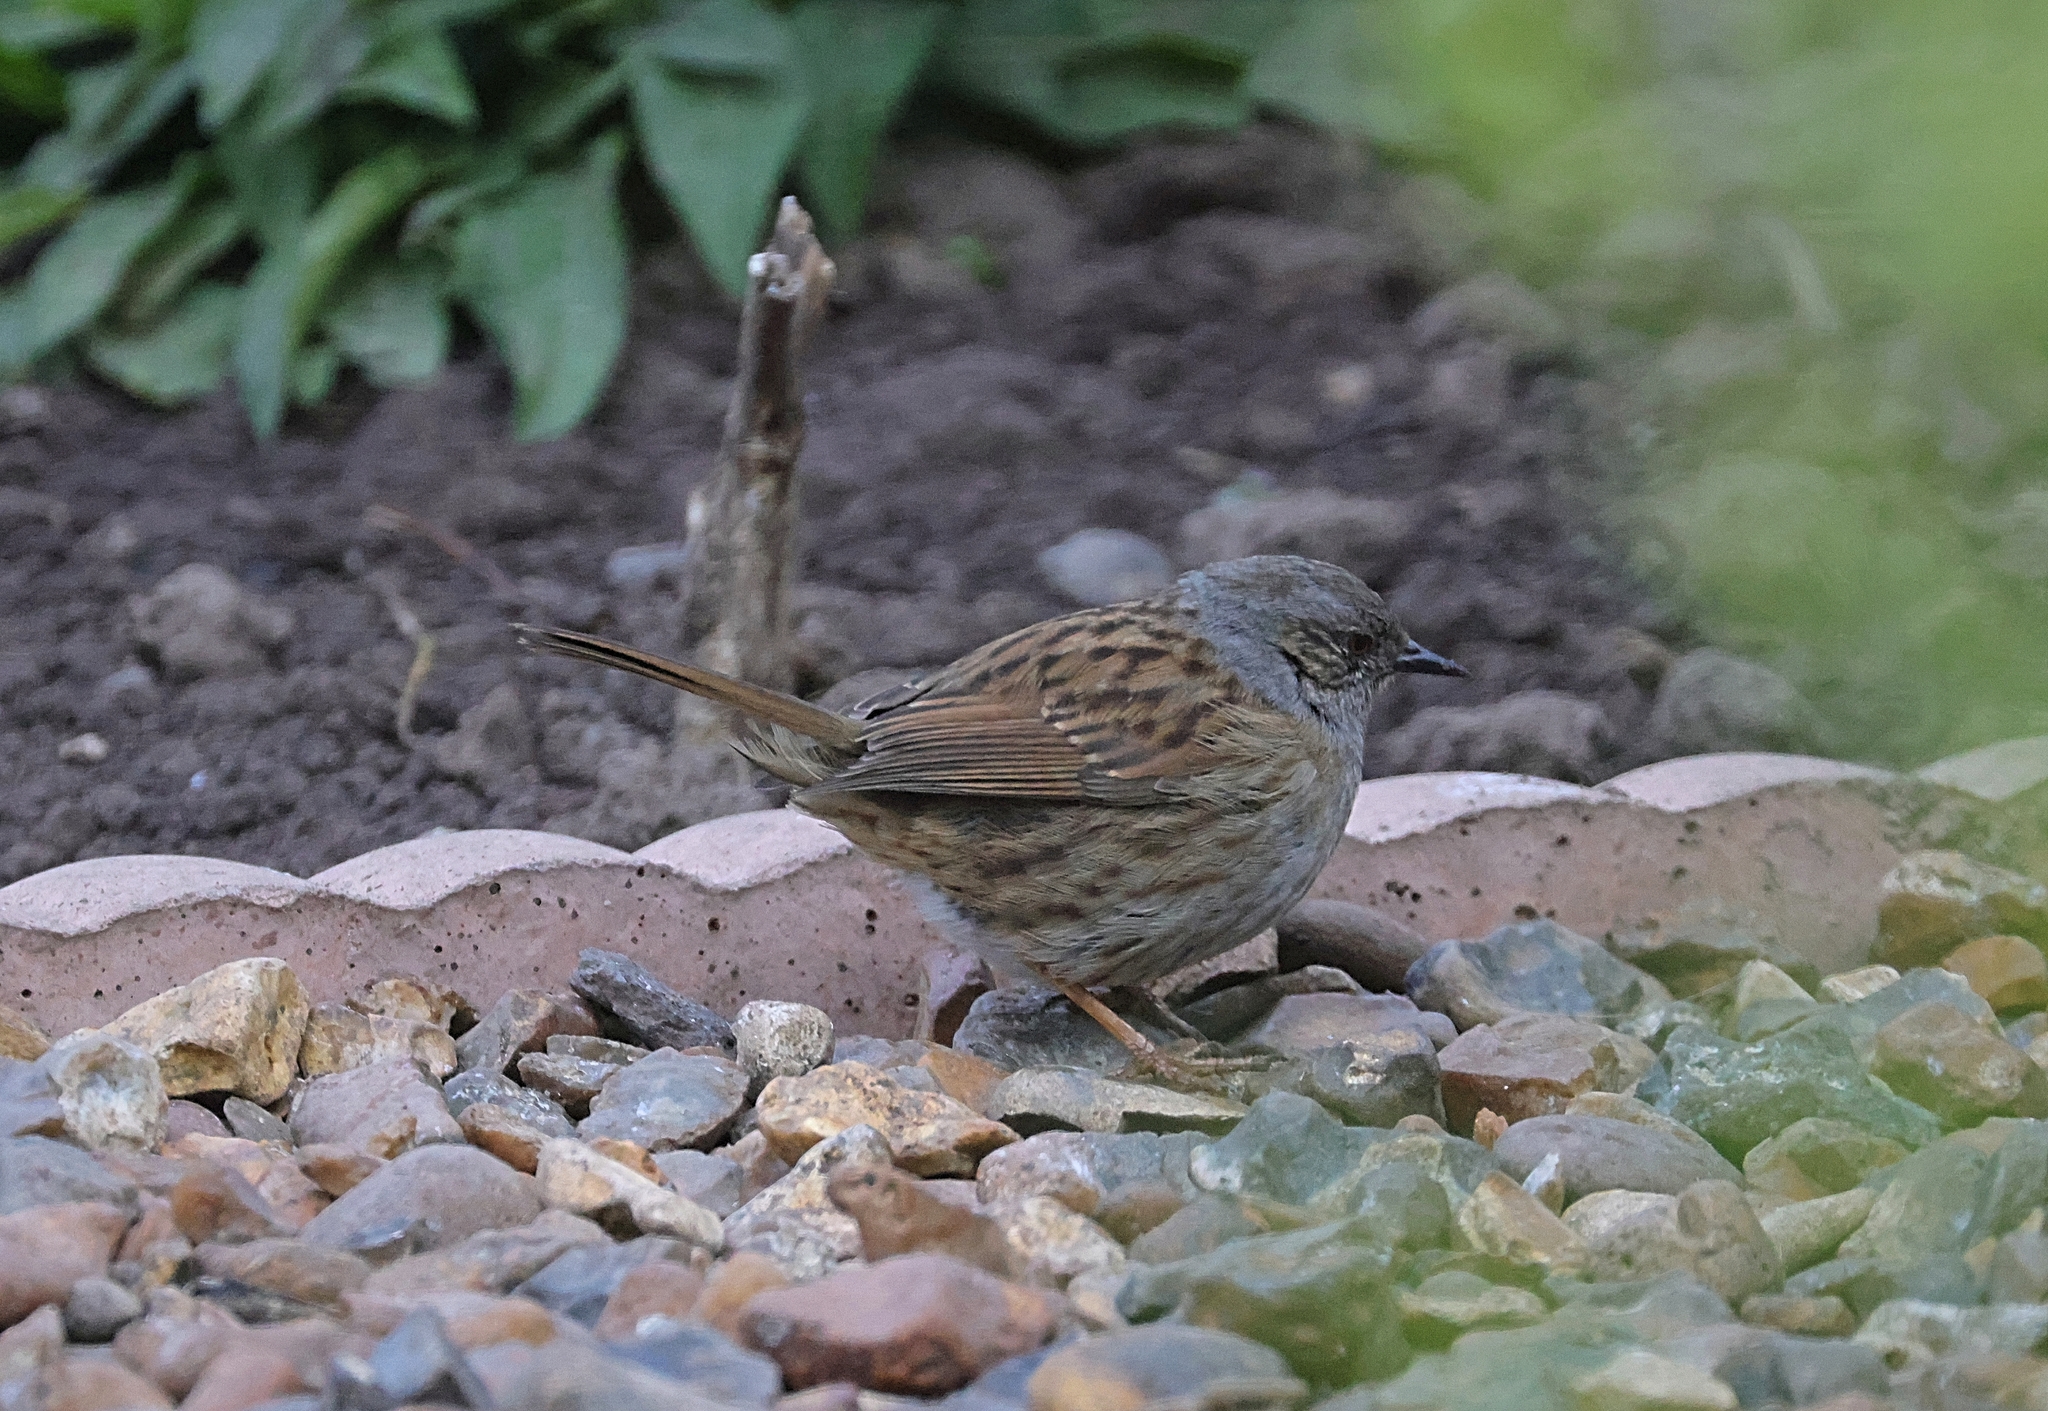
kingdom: Animalia
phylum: Chordata
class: Aves
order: Passeriformes
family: Prunellidae
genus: Prunella
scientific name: Prunella modularis
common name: Dunnock
